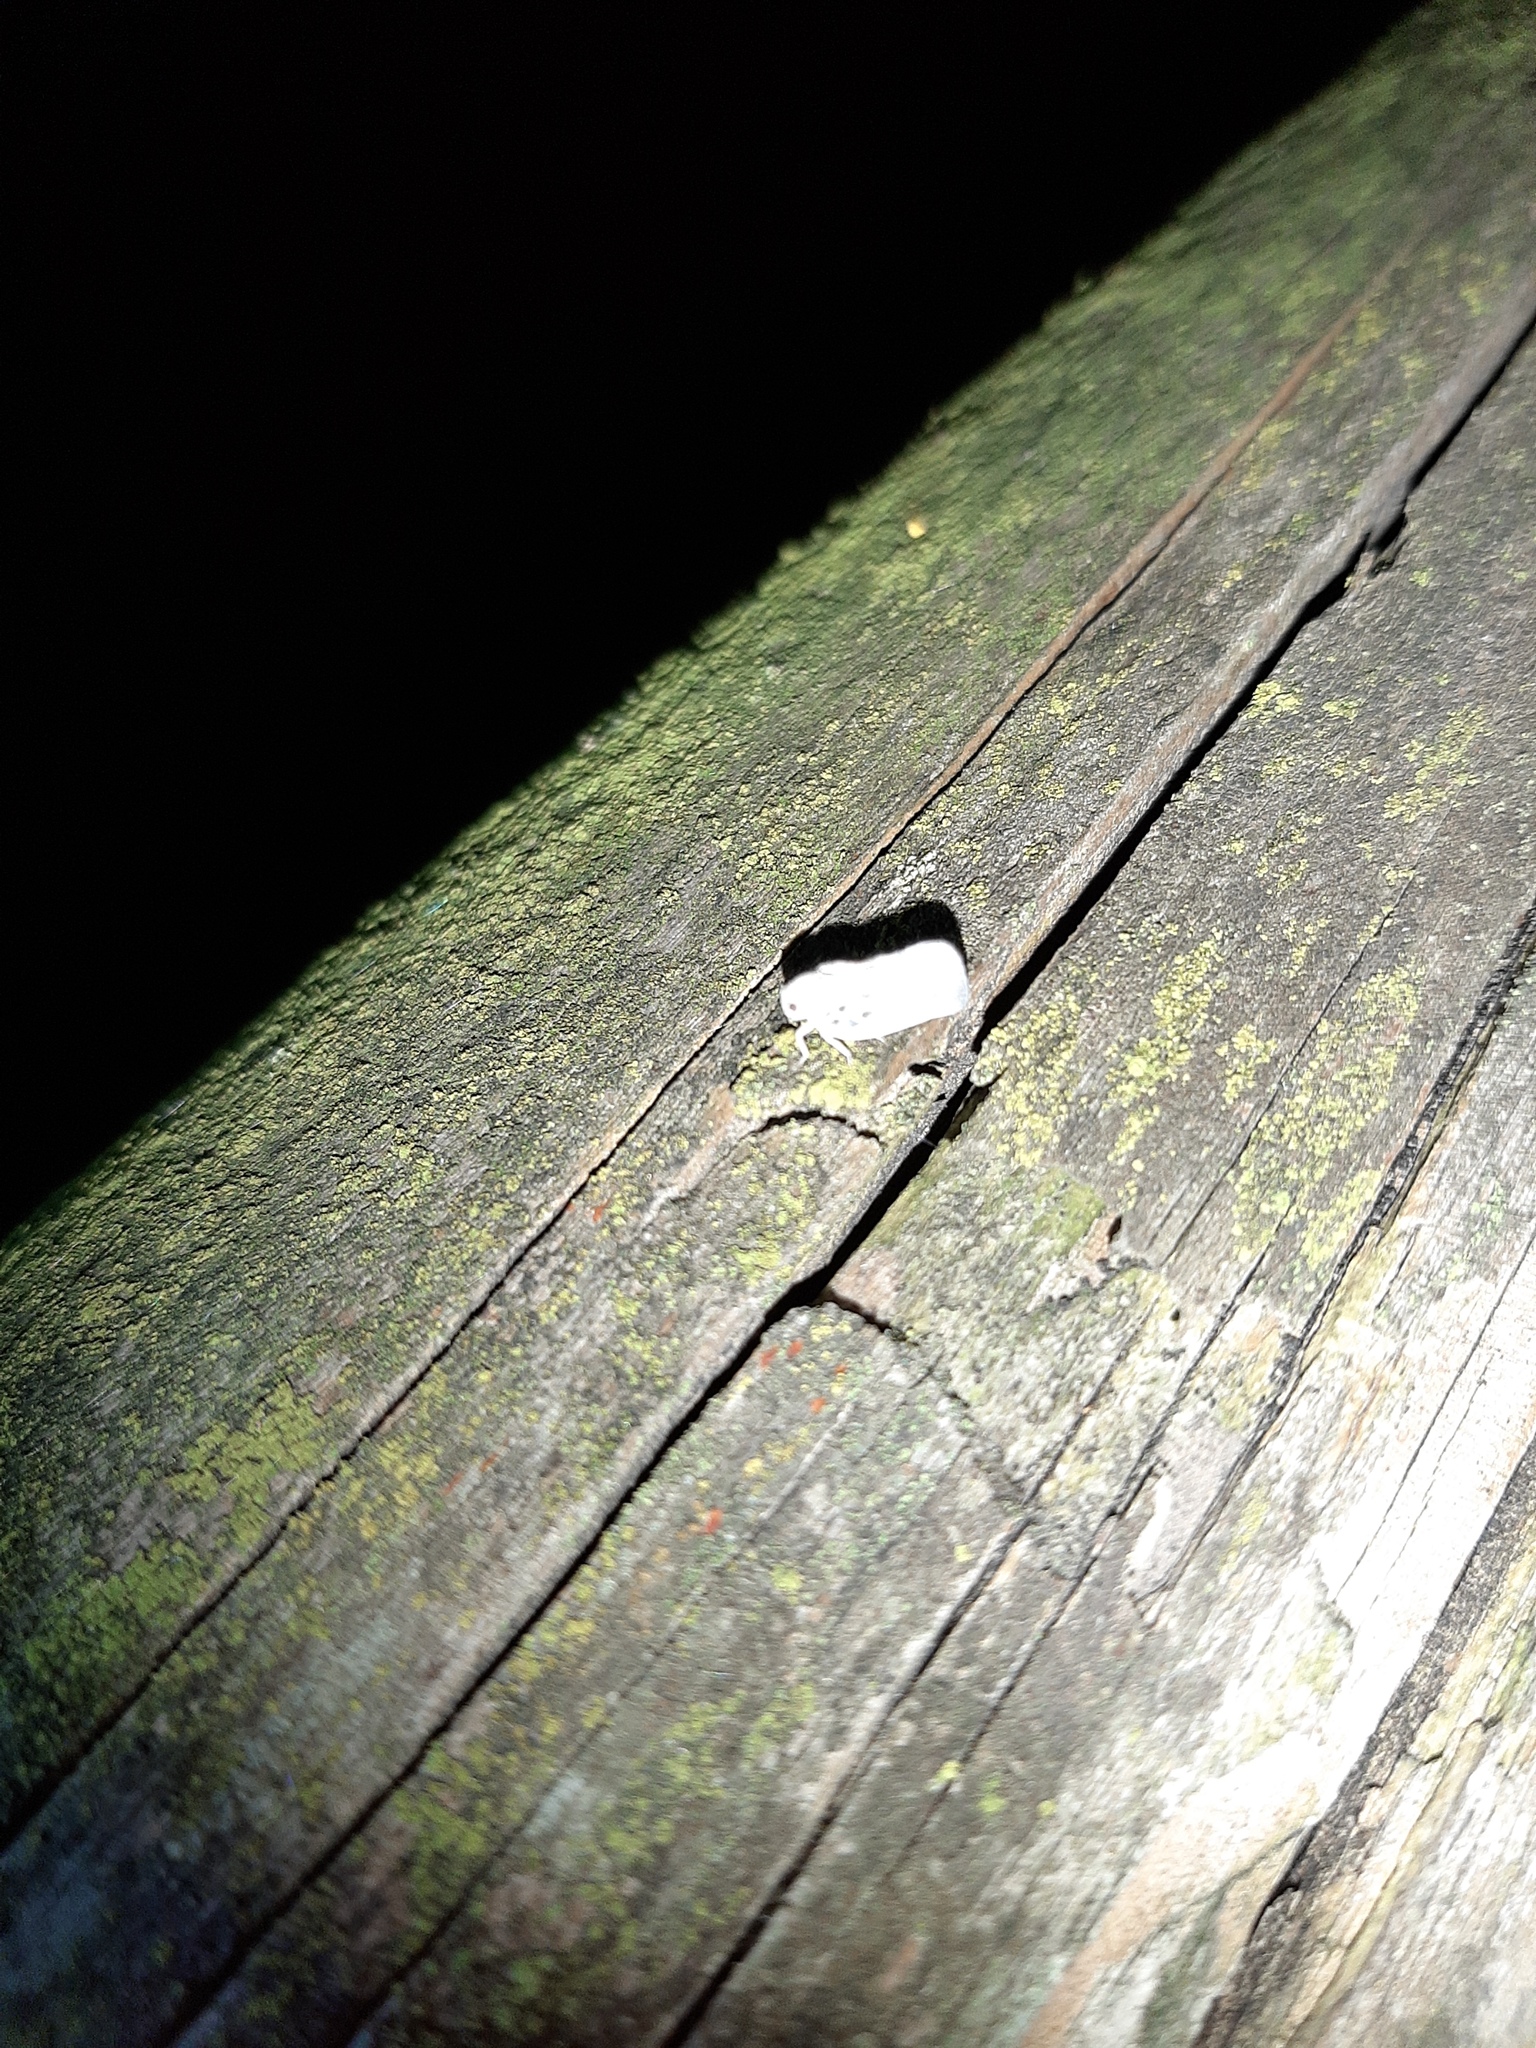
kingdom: Animalia
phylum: Arthropoda
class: Insecta
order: Hemiptera
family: Flatidae
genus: Metcalfa
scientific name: Metcalfa pruinosa
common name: Citrus flatid planthopper
